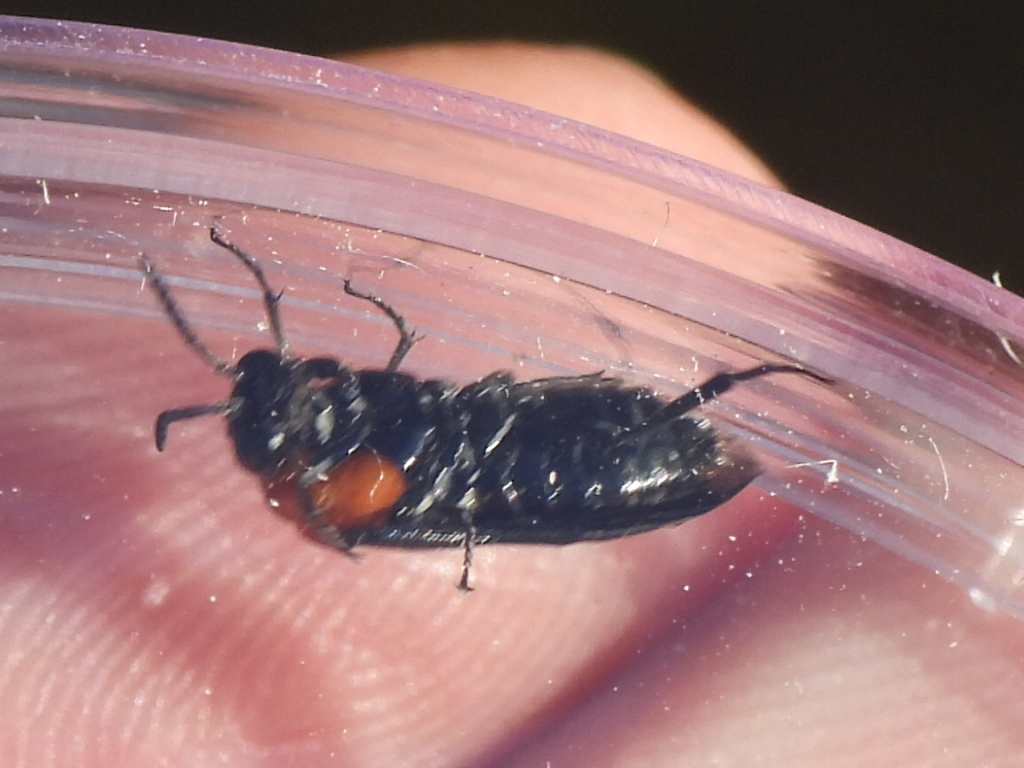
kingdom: Animalia
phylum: Arthropoda
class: Insecta
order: Hymenoptera
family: Tenthredinidae
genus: Tethida
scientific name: Tethida barda
